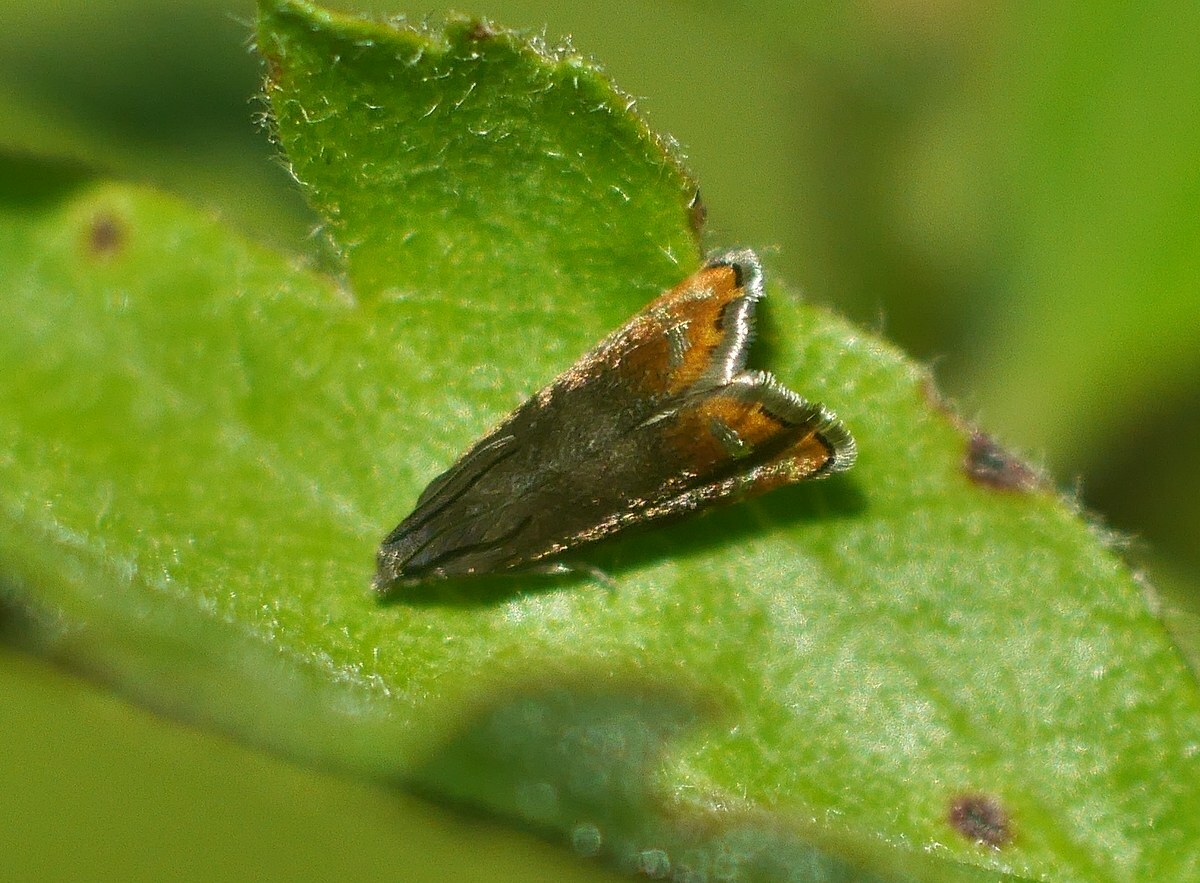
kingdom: Animalia
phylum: Arthropoda
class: Insecta
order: Lepidoptera
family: Tortricidae
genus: Pammene
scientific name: Pammene rhediella
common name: Fruitlet-mining tortrix
